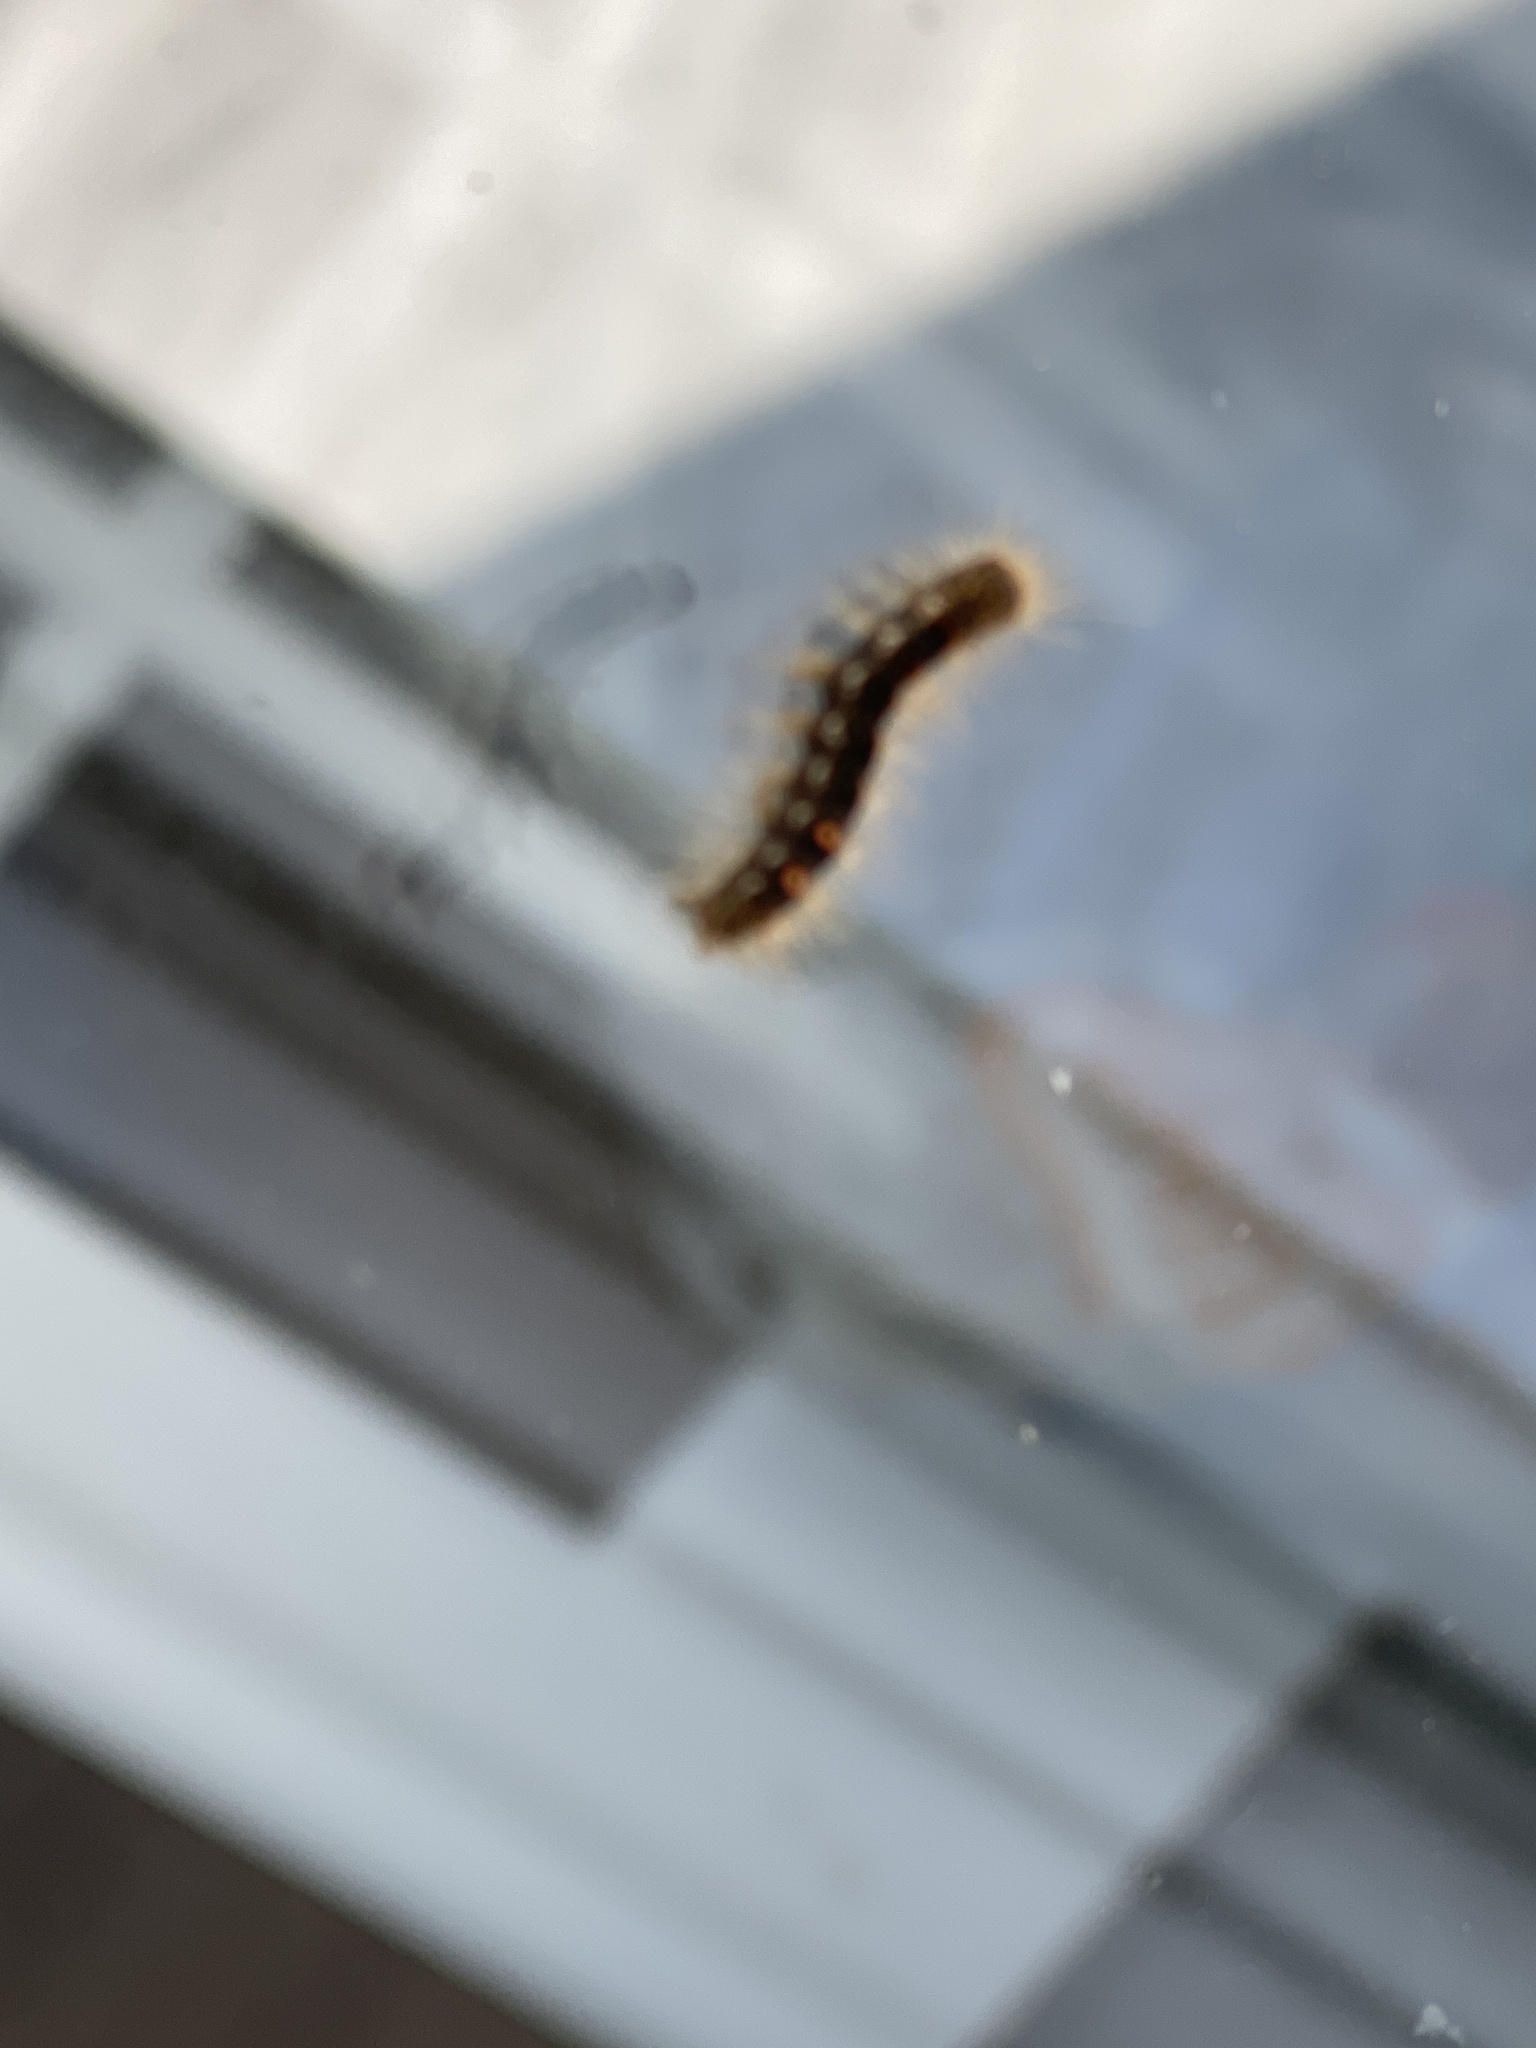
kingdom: Animalia
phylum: Arthropoda
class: Insecta
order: Lepidoptera
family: Erebidae
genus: Euproctis
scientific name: Euproctis chrysorrhoea
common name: Brown-tail
